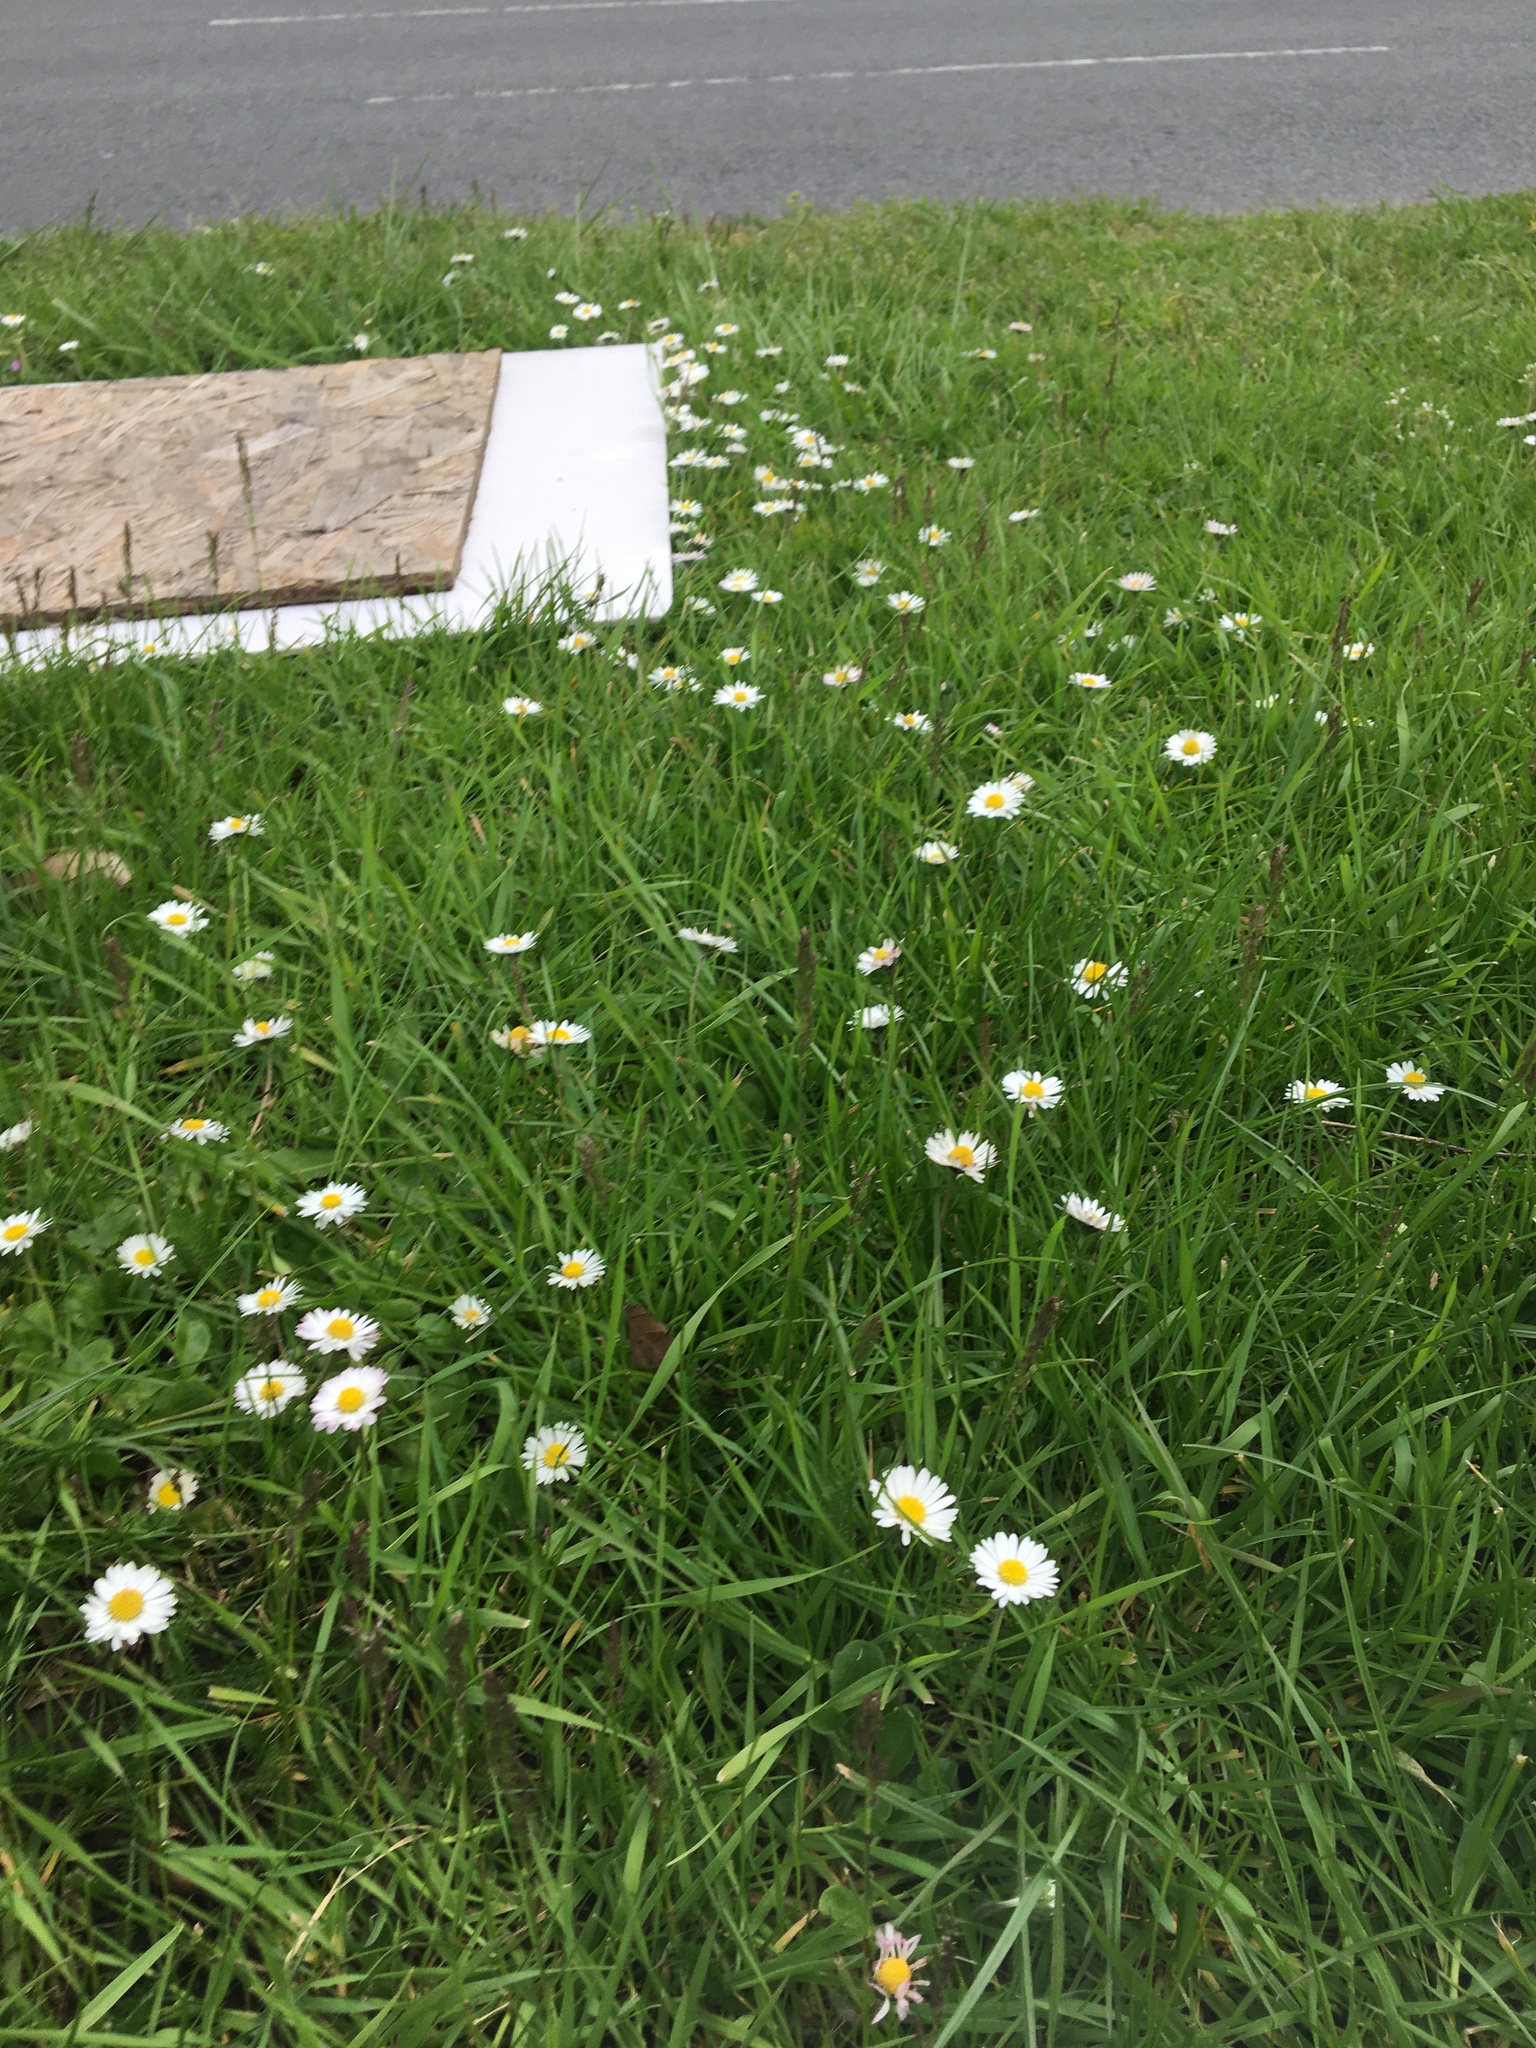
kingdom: Plantae
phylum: Tracheophyta
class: Magnoliopsida
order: Asterales
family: Asteraceae
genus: Bellis
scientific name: Bellis perennis
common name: Lawndaisy
